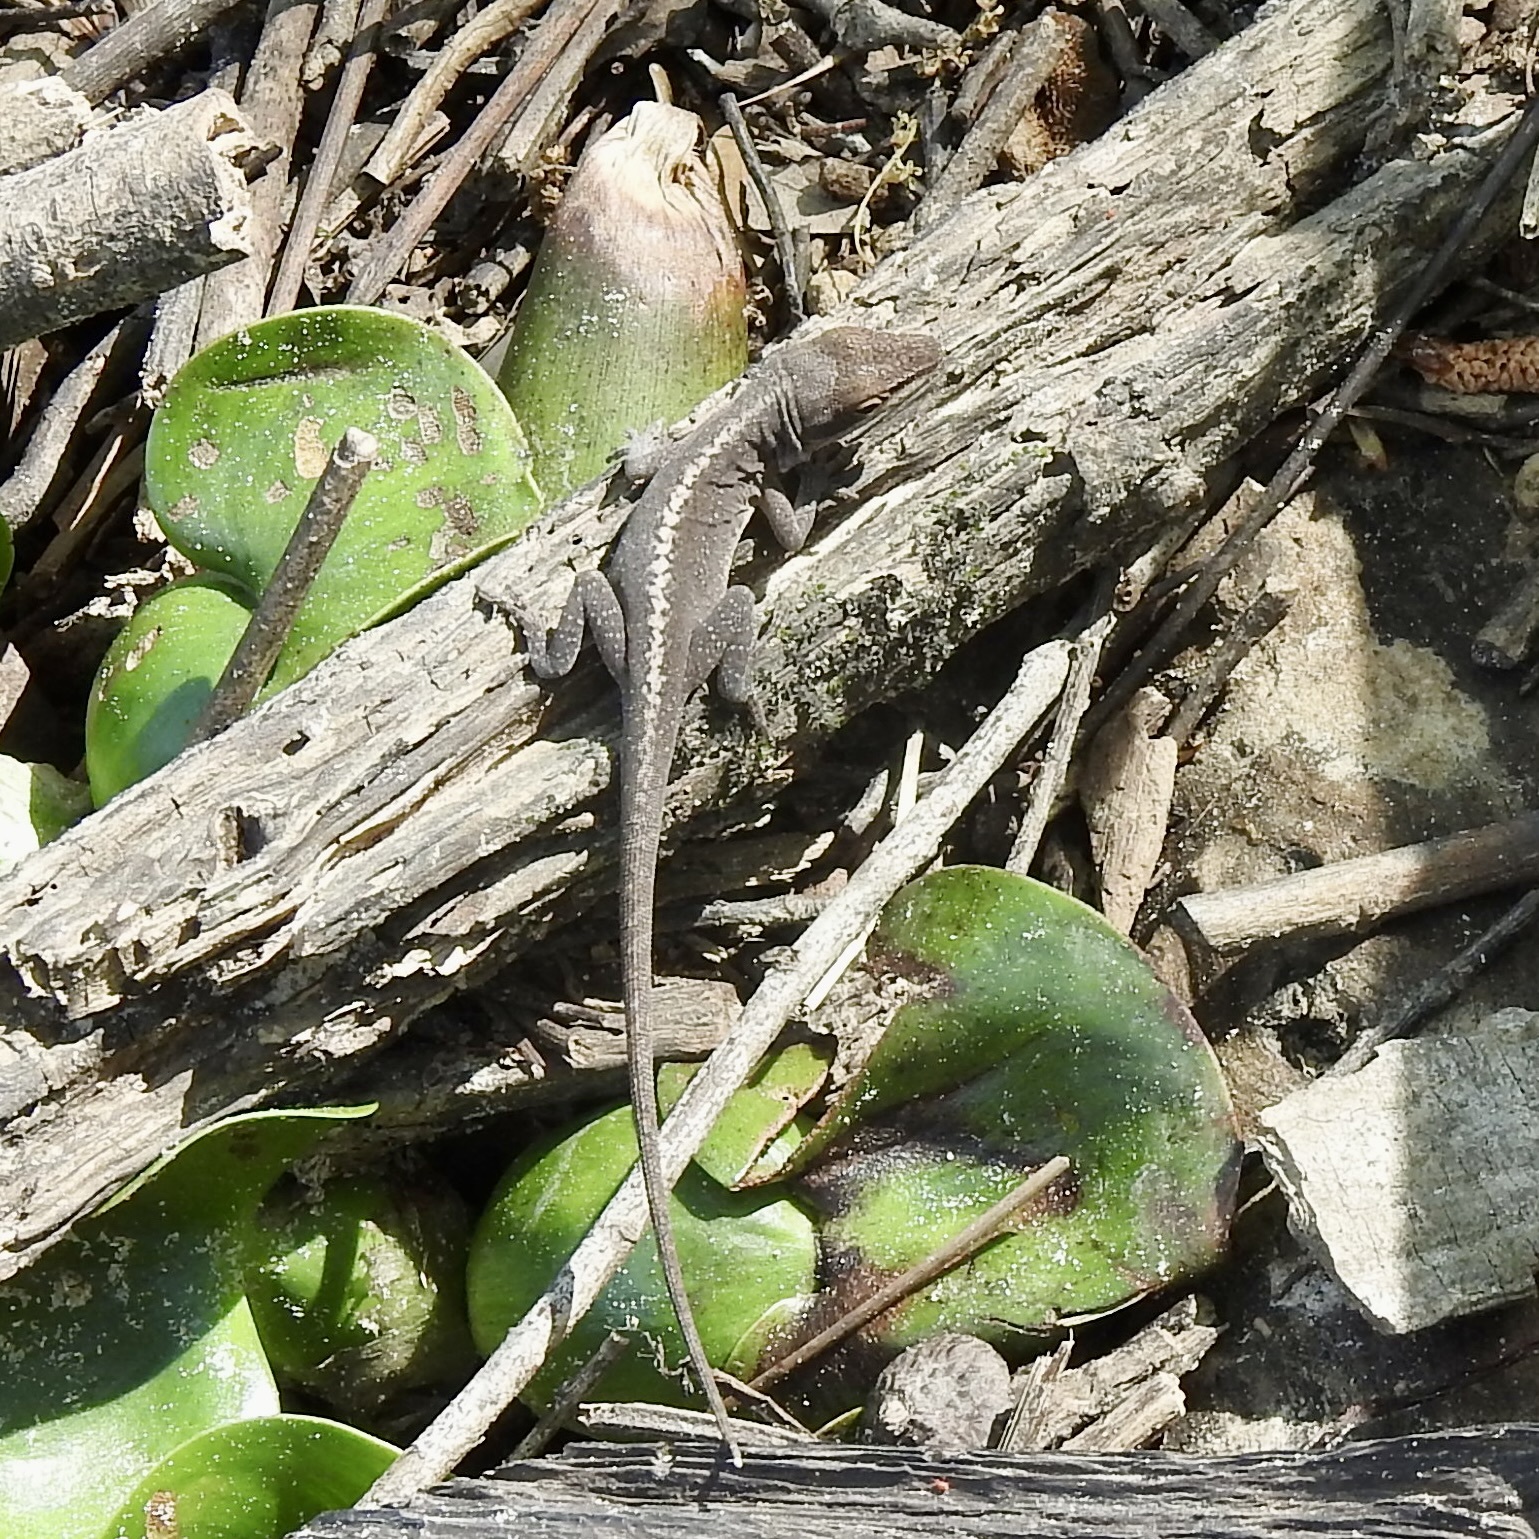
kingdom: Animalia
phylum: Chordata
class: Squamata
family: Dactyloidae
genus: Anolis
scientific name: Anolis carolinensis
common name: Green anole
